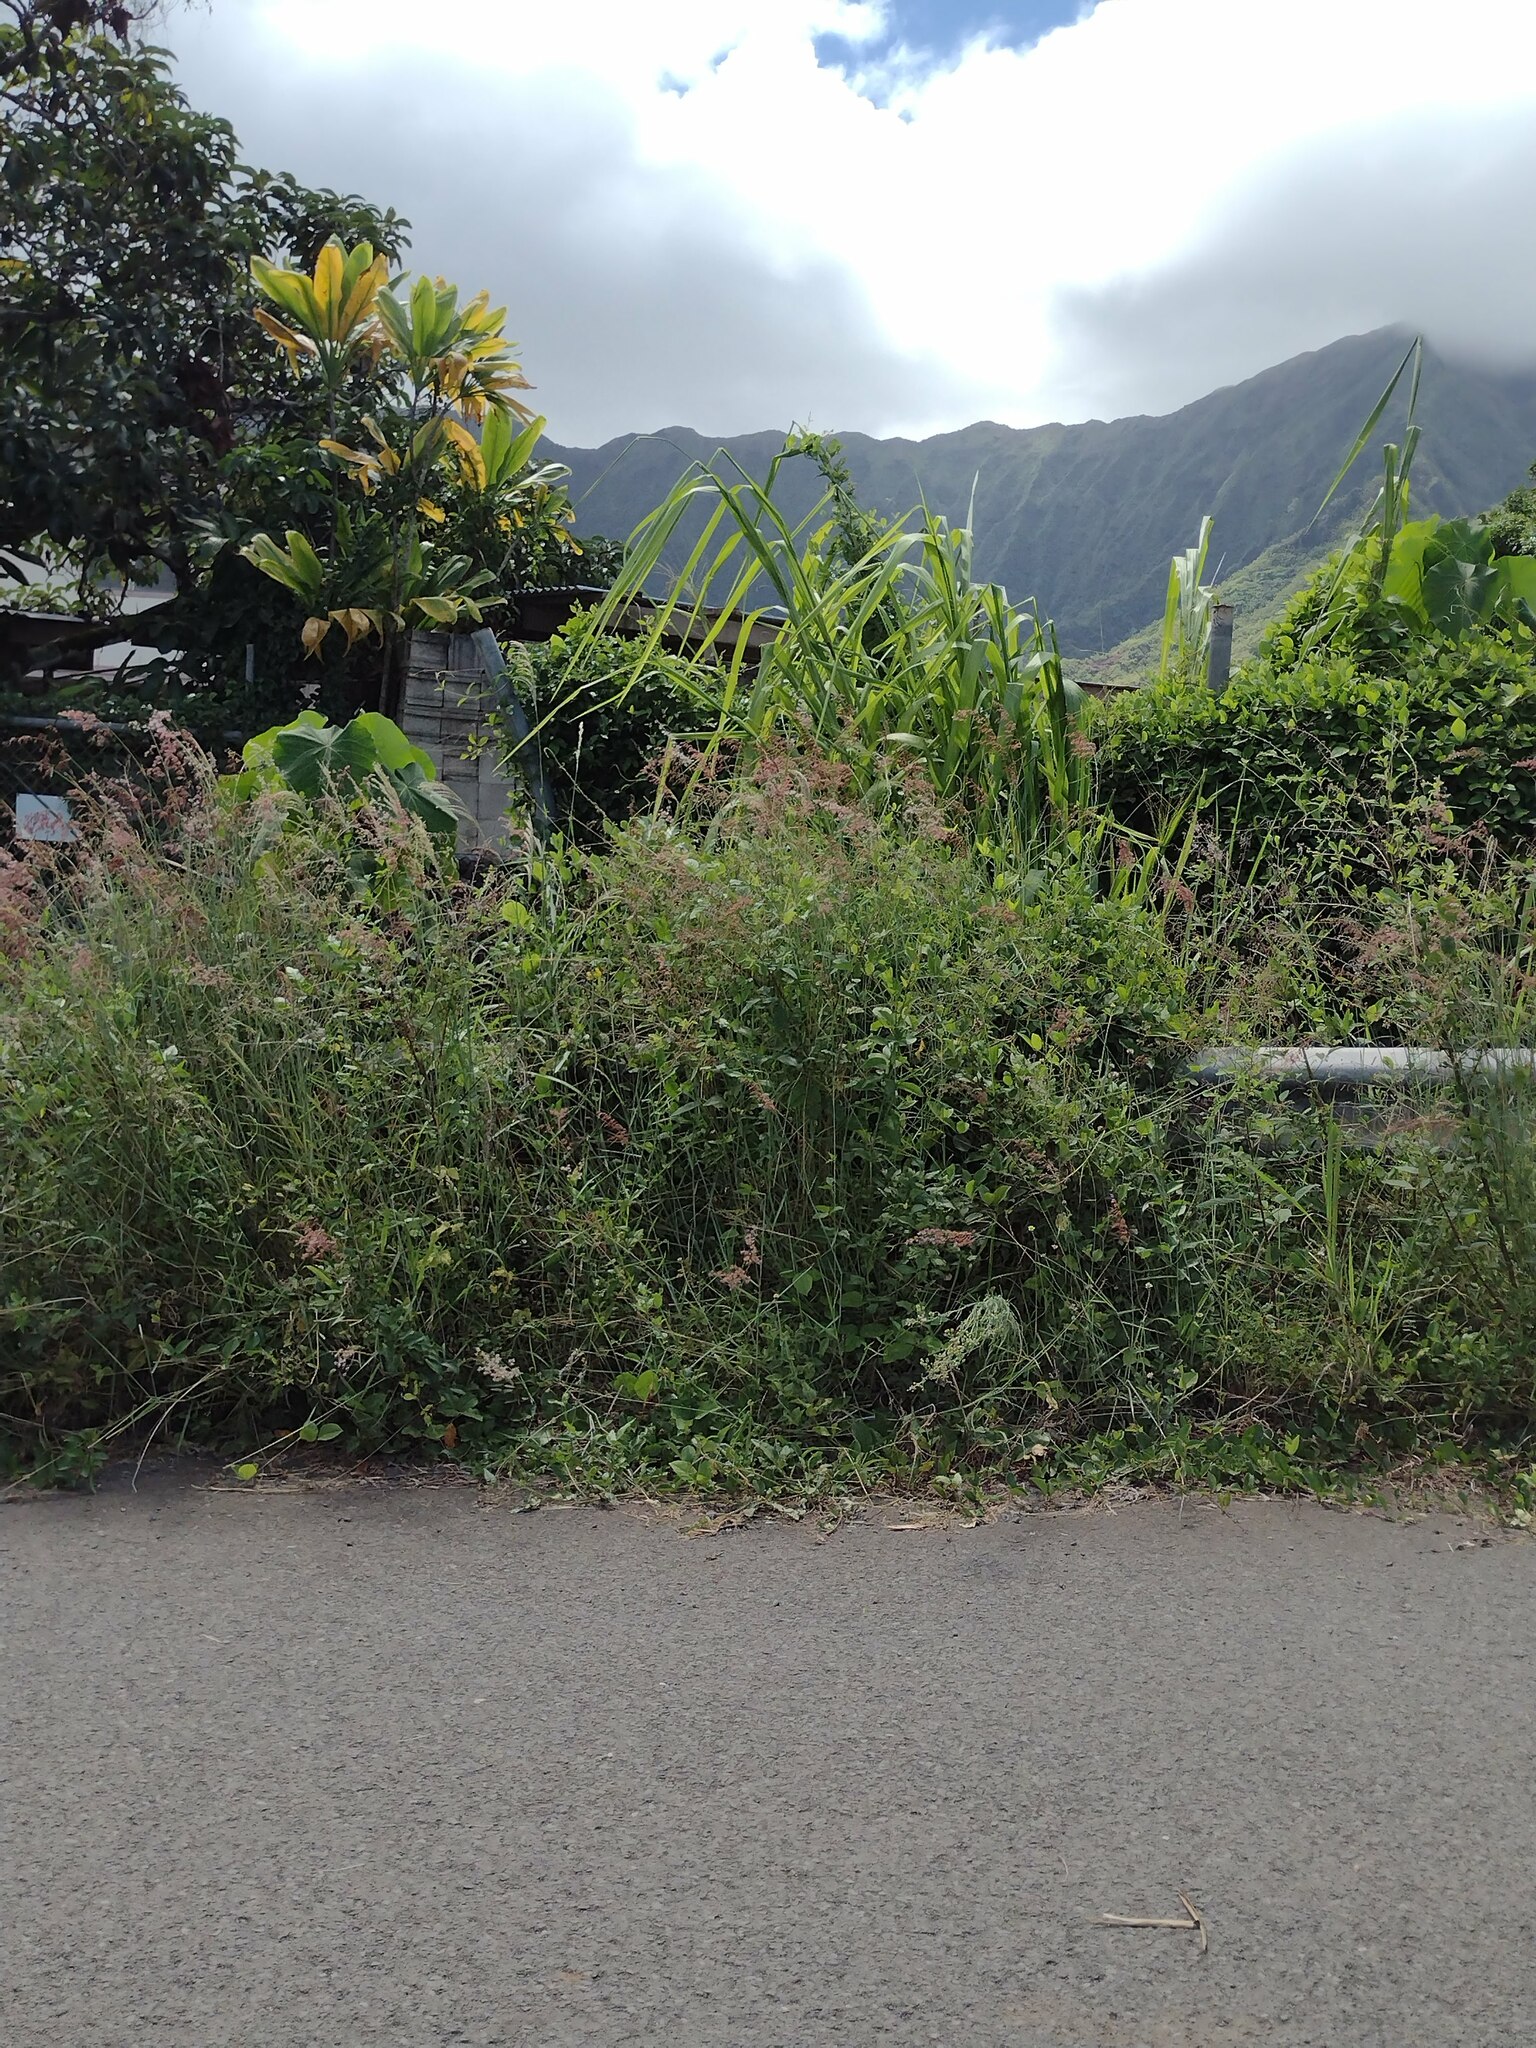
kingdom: Plantae
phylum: Tracheophyta
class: Liliopsida
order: Poales
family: Poaceae
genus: Melinis
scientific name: Melinis repens
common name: Rose natal grass
